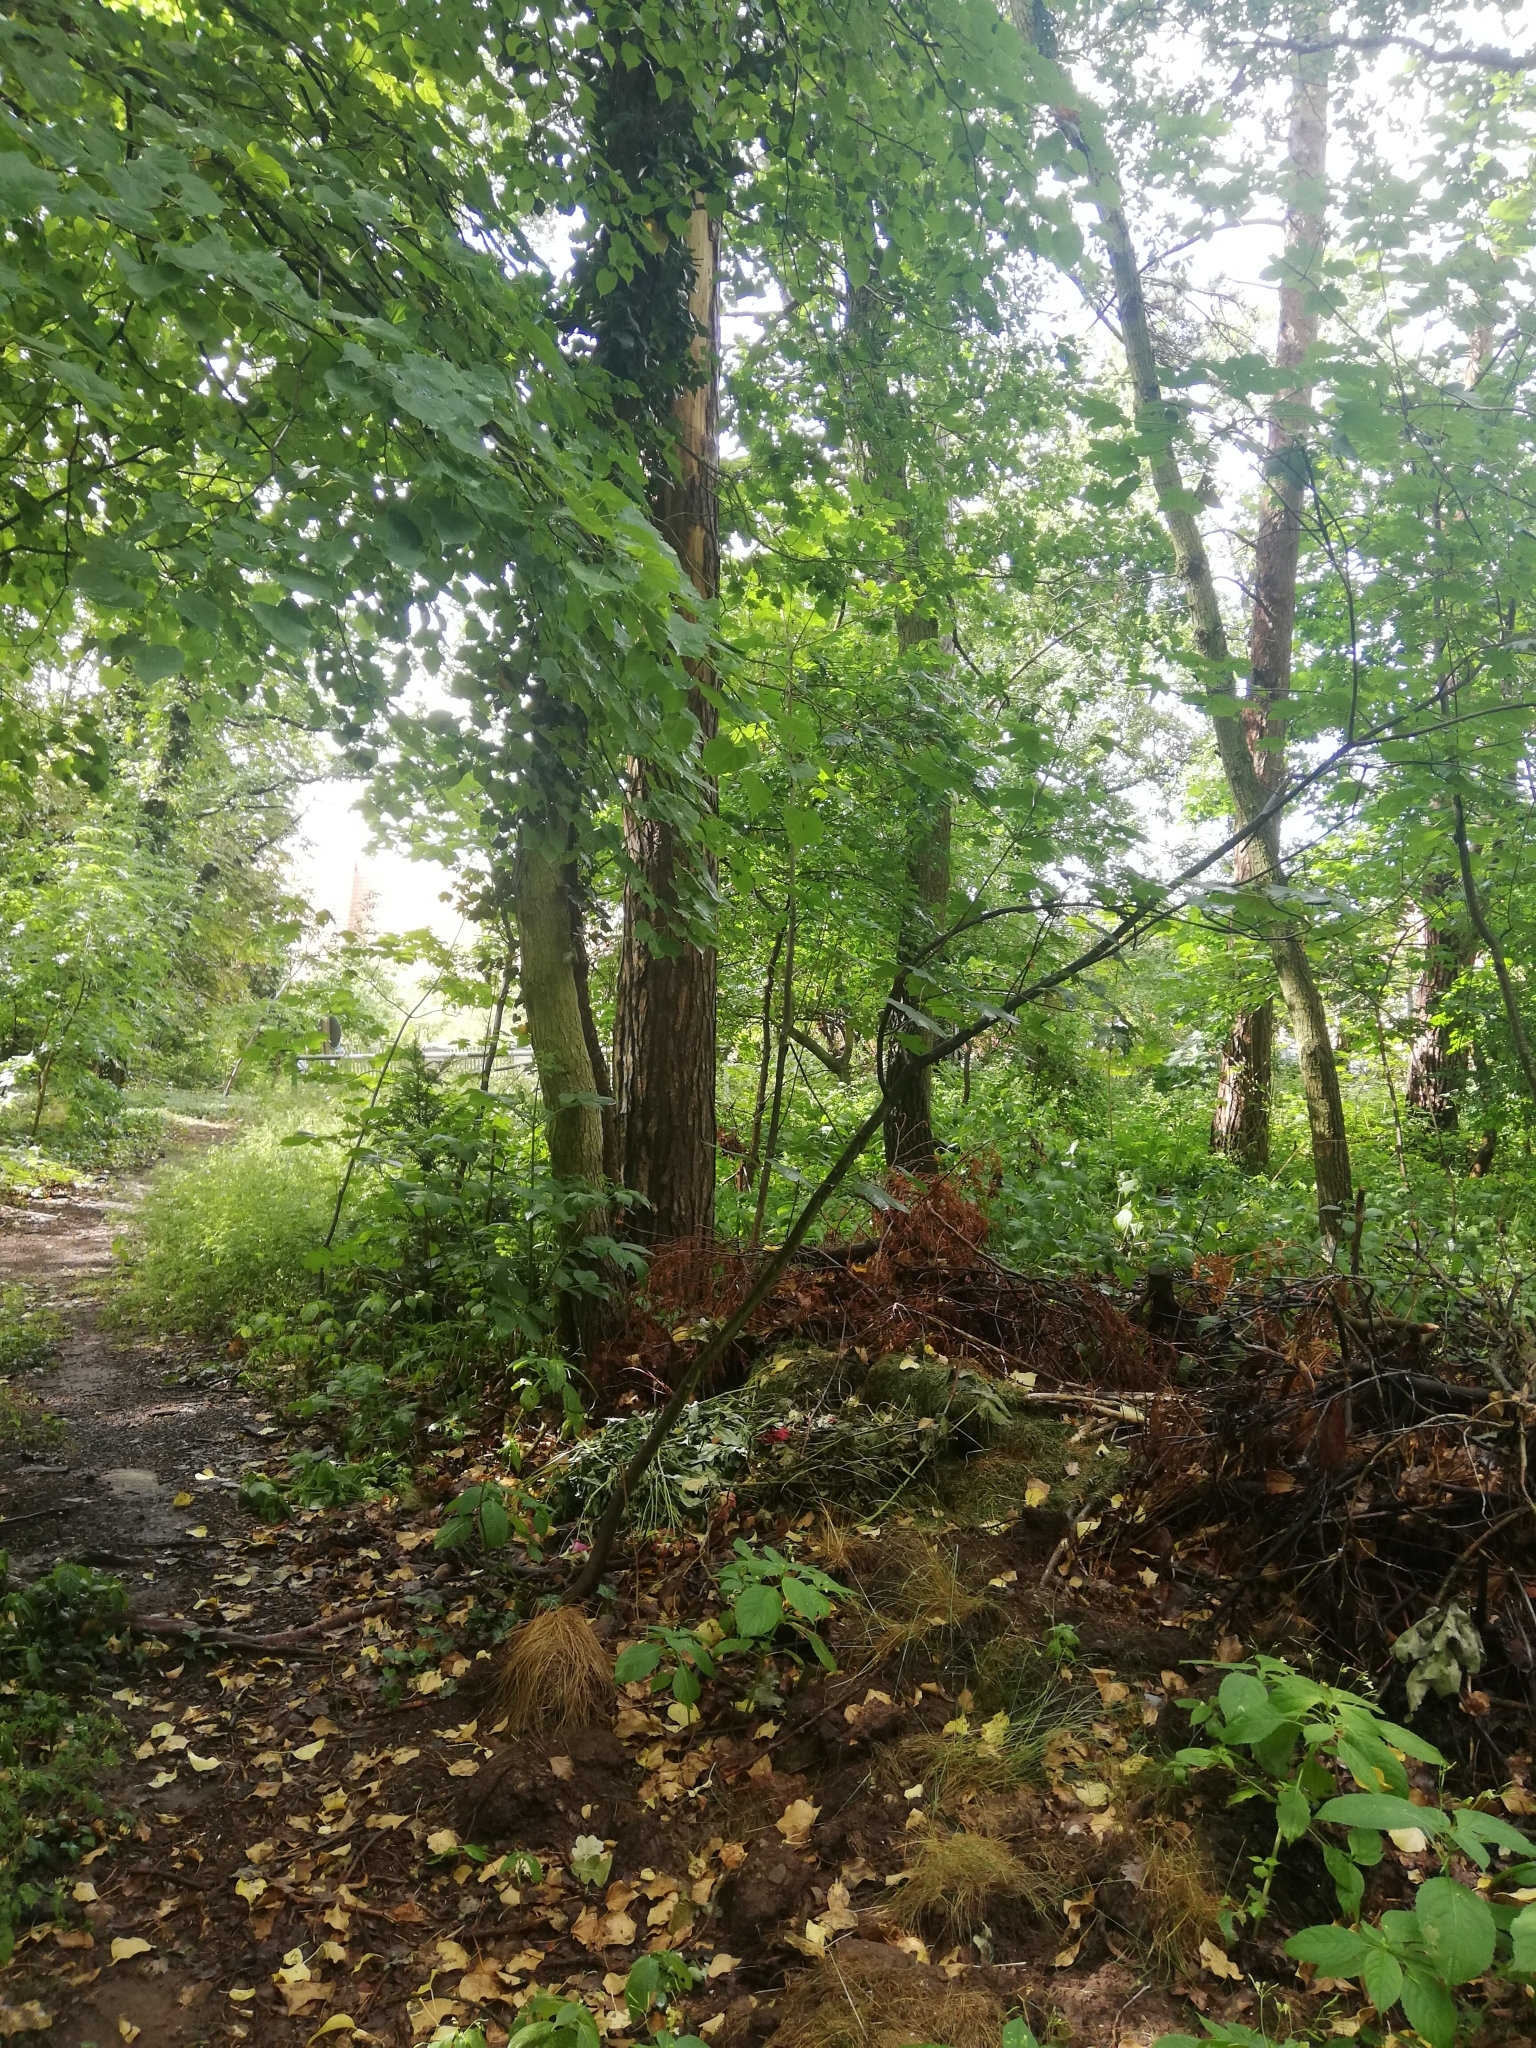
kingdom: Animalia
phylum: Mollusca
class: Gastropoda
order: Stylommatophora
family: Helicidae
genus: Helix
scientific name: Helix pomatia
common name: Roman snail
